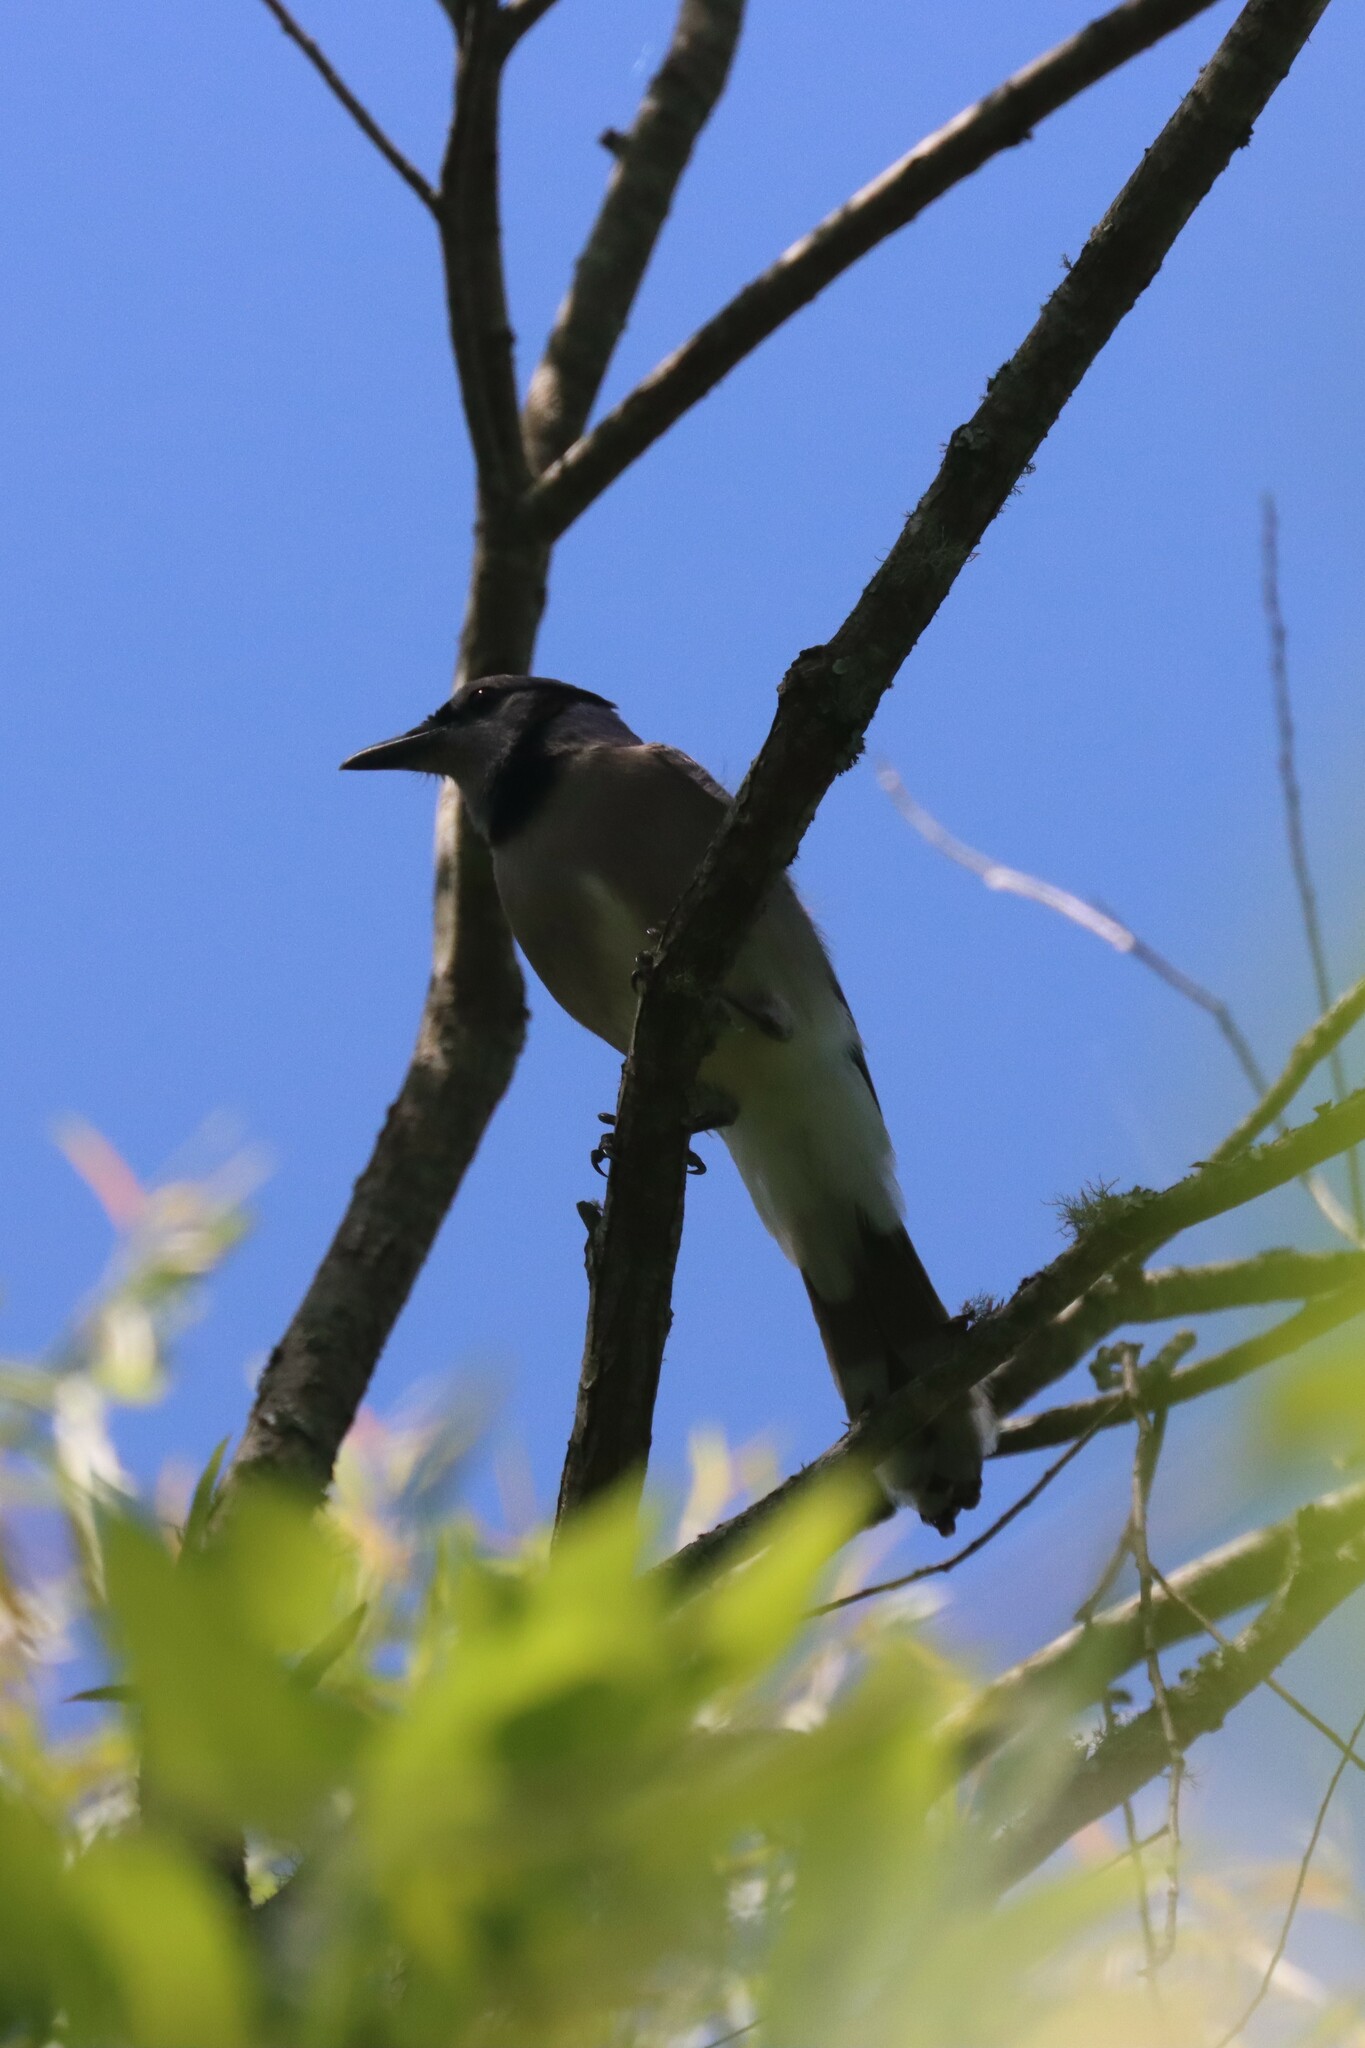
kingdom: Animalia
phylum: Chordata
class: Aves
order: Passeriformes
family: Corvidae
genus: Cyanocitta
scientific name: Cyanocitta cristata
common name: Blue jay
